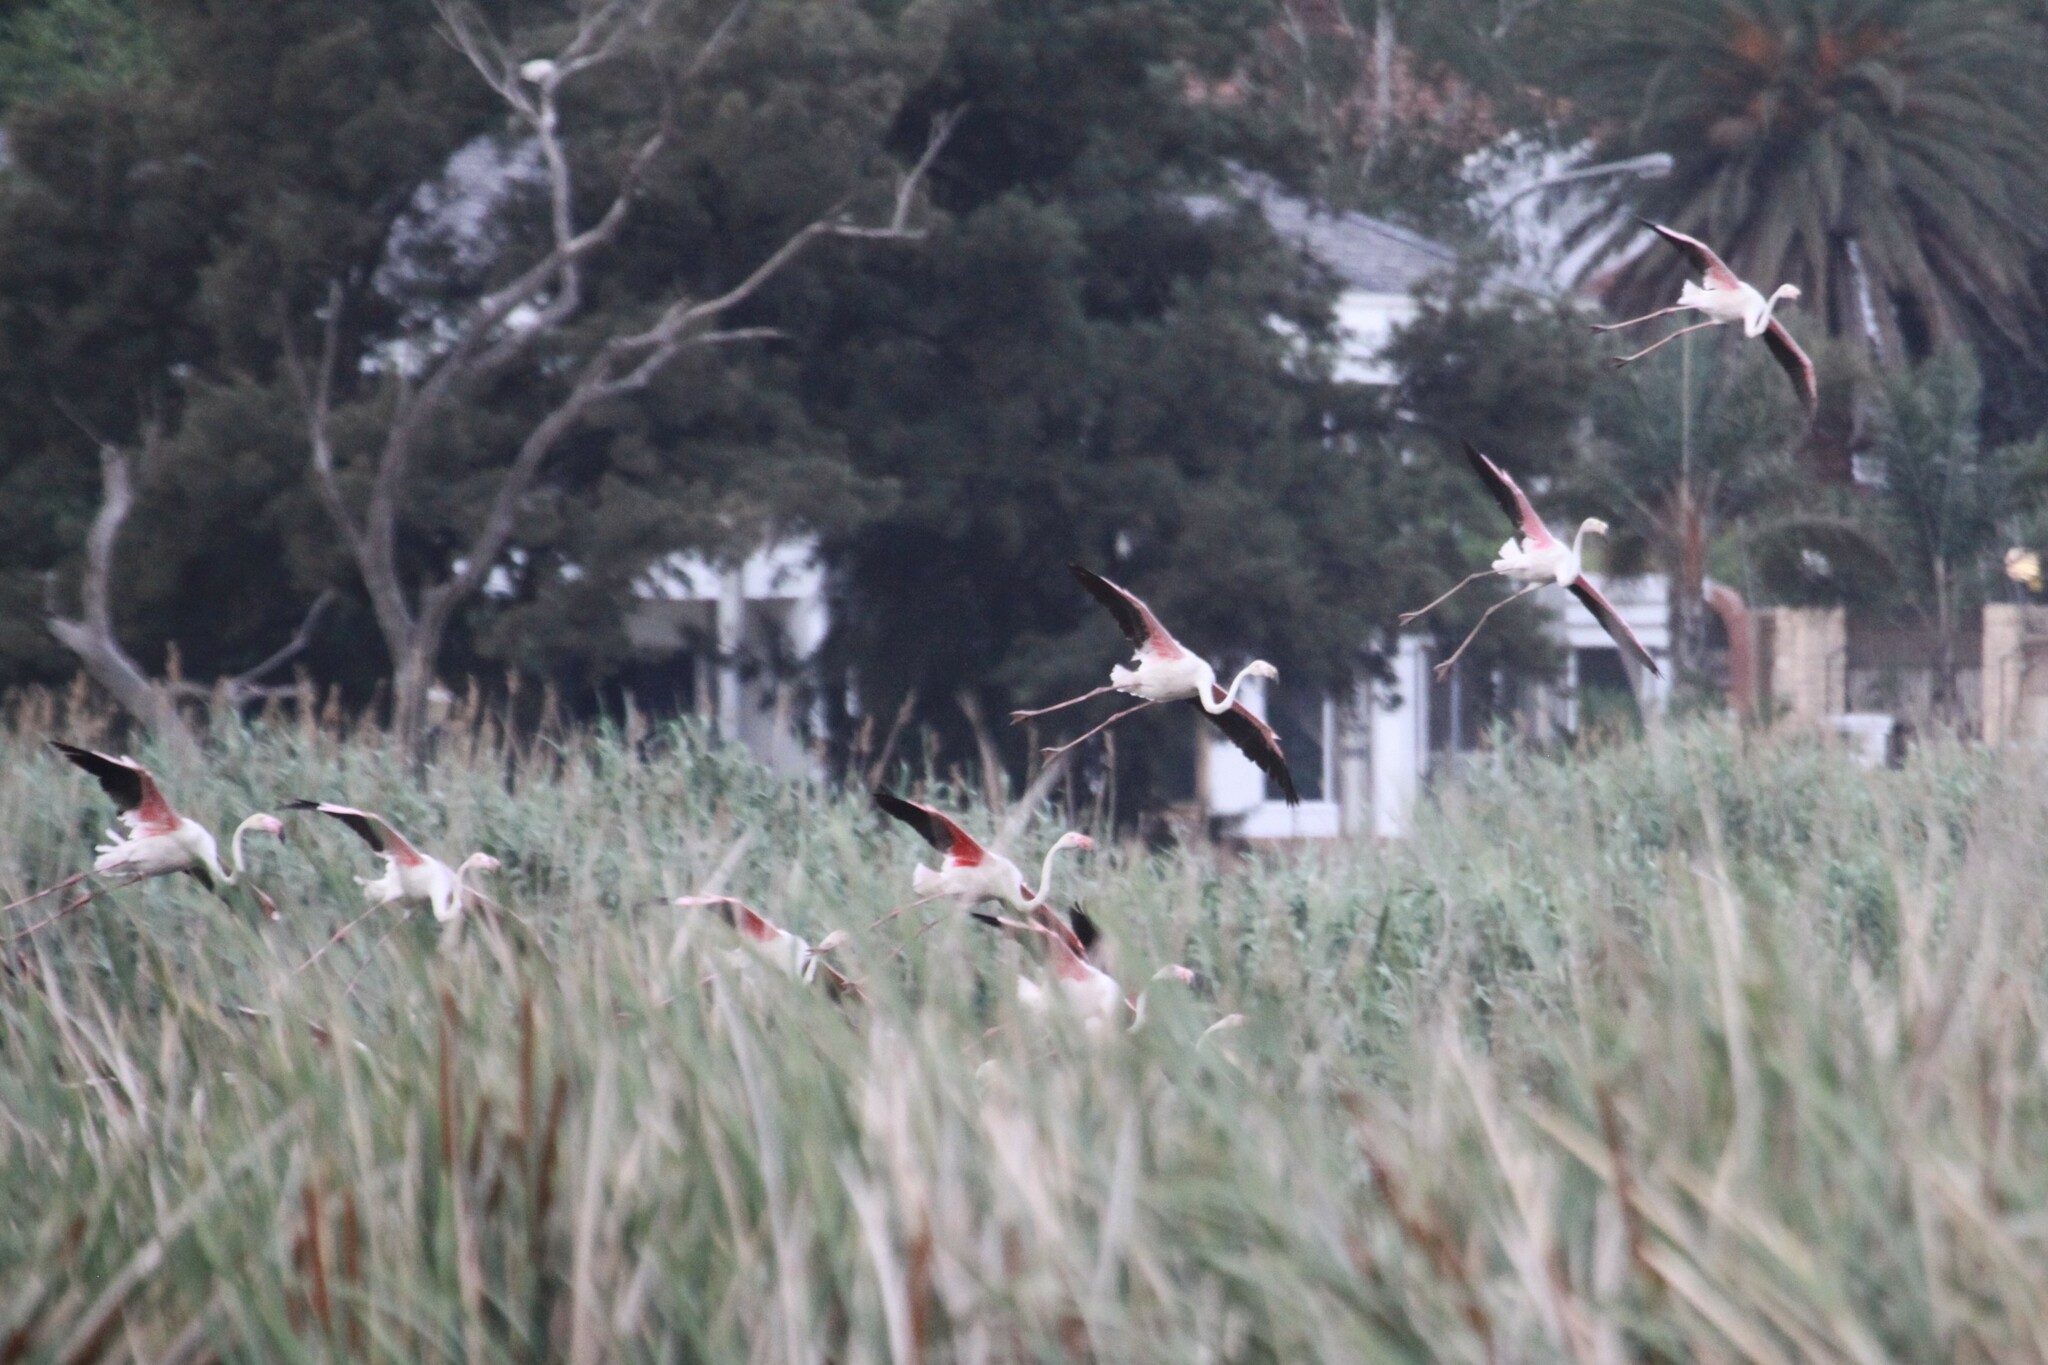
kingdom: Animalia
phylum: Chordata
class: Aves
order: Phoenicopteriformes
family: Phoenicopteridae
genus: Phoenicopterus
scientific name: Phoenicopterus roseus
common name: Greater flamingo
